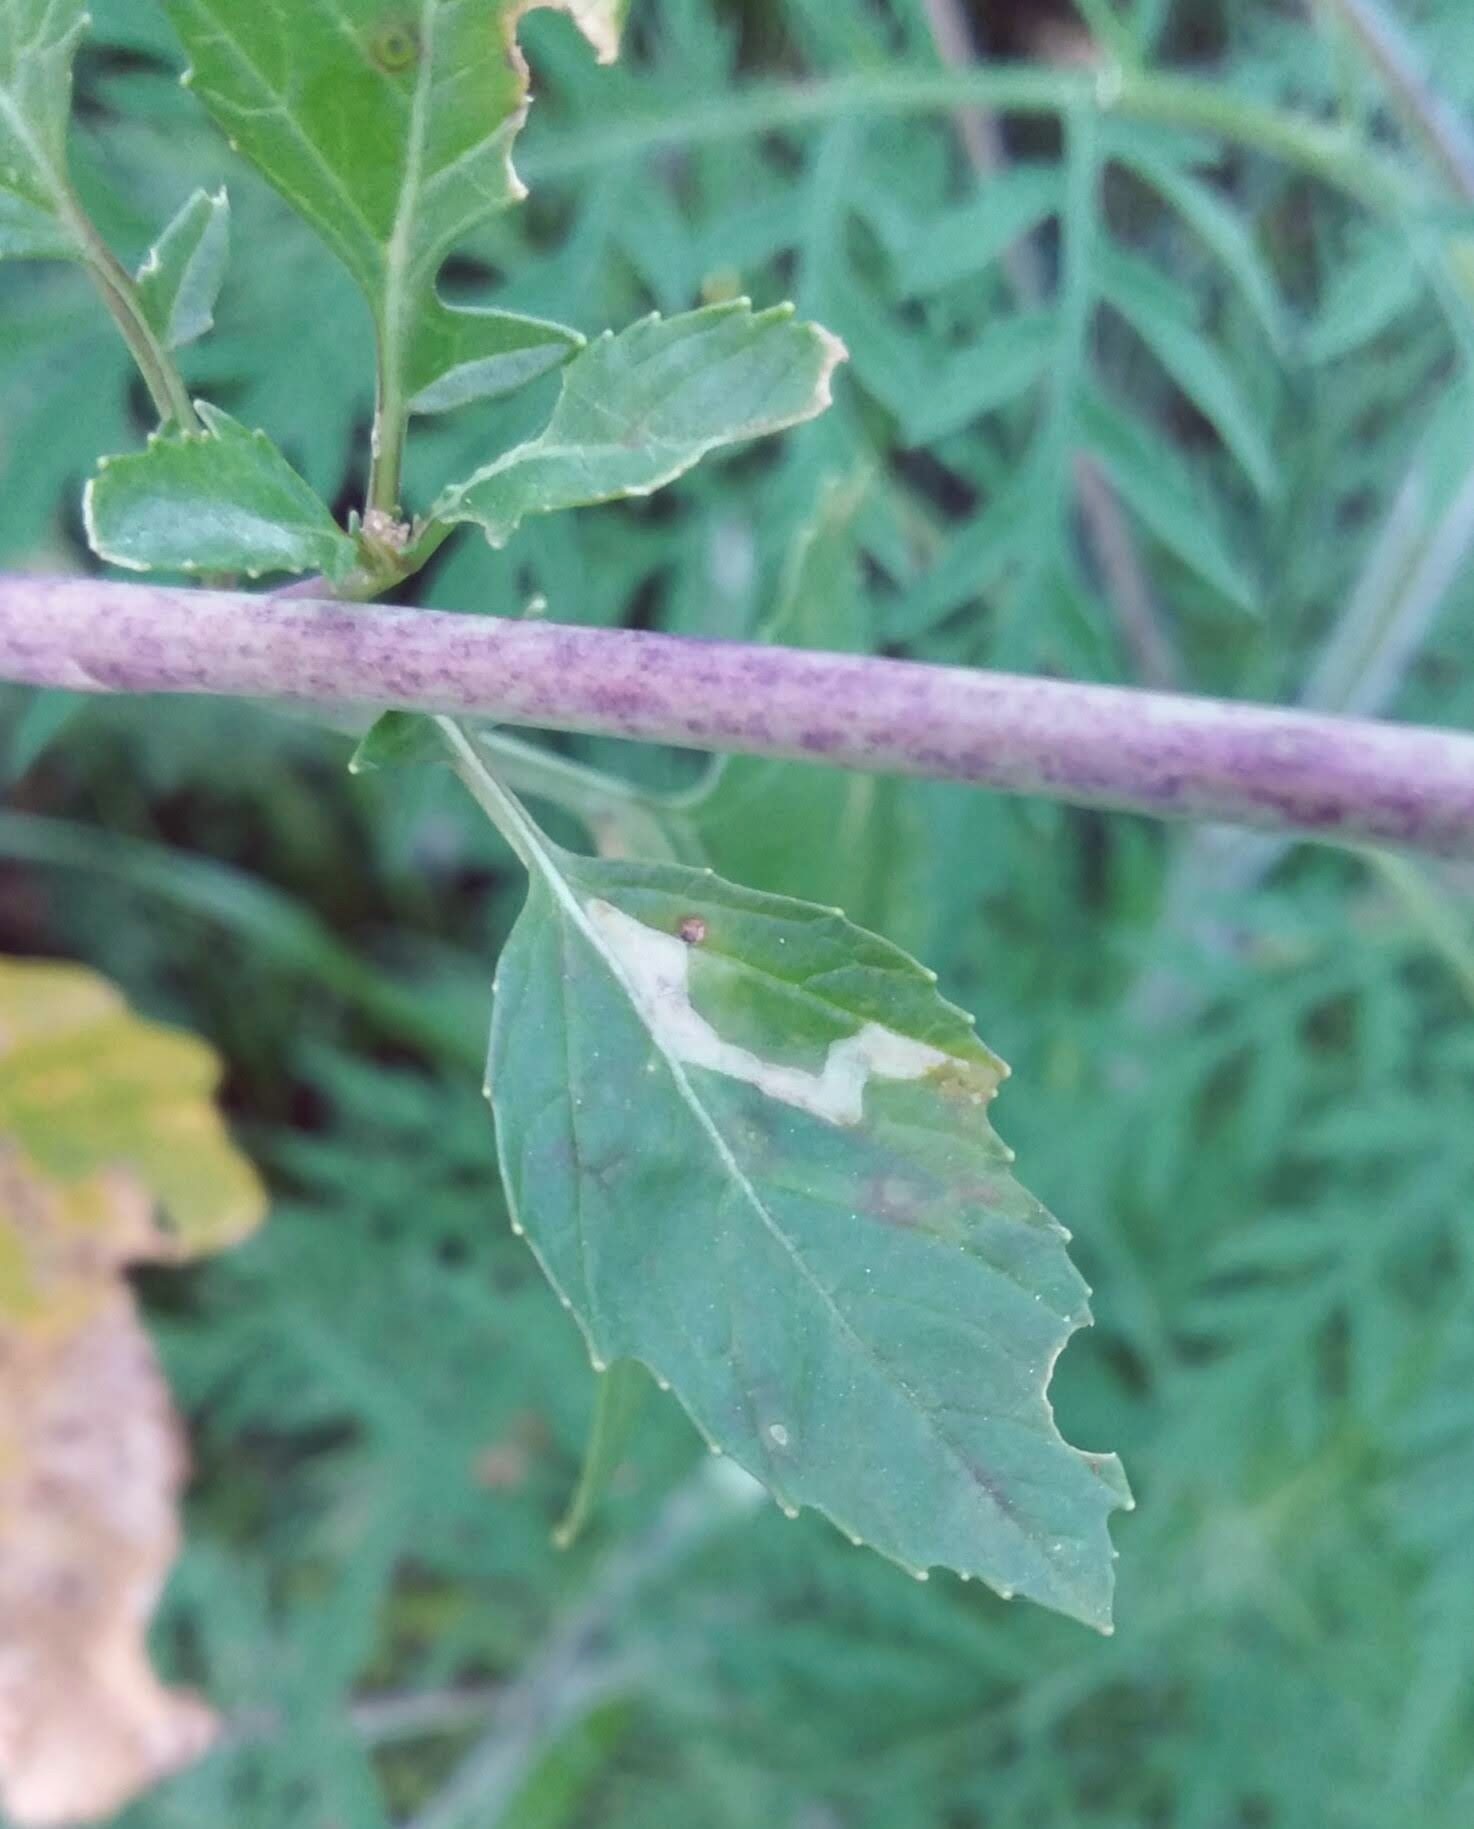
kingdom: Animalia
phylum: Arthropoda
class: Insecta
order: Diptera
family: Agromyzidae
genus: Liriomyza
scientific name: Liriomyza brassicae
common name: Serpentine leaf miner
